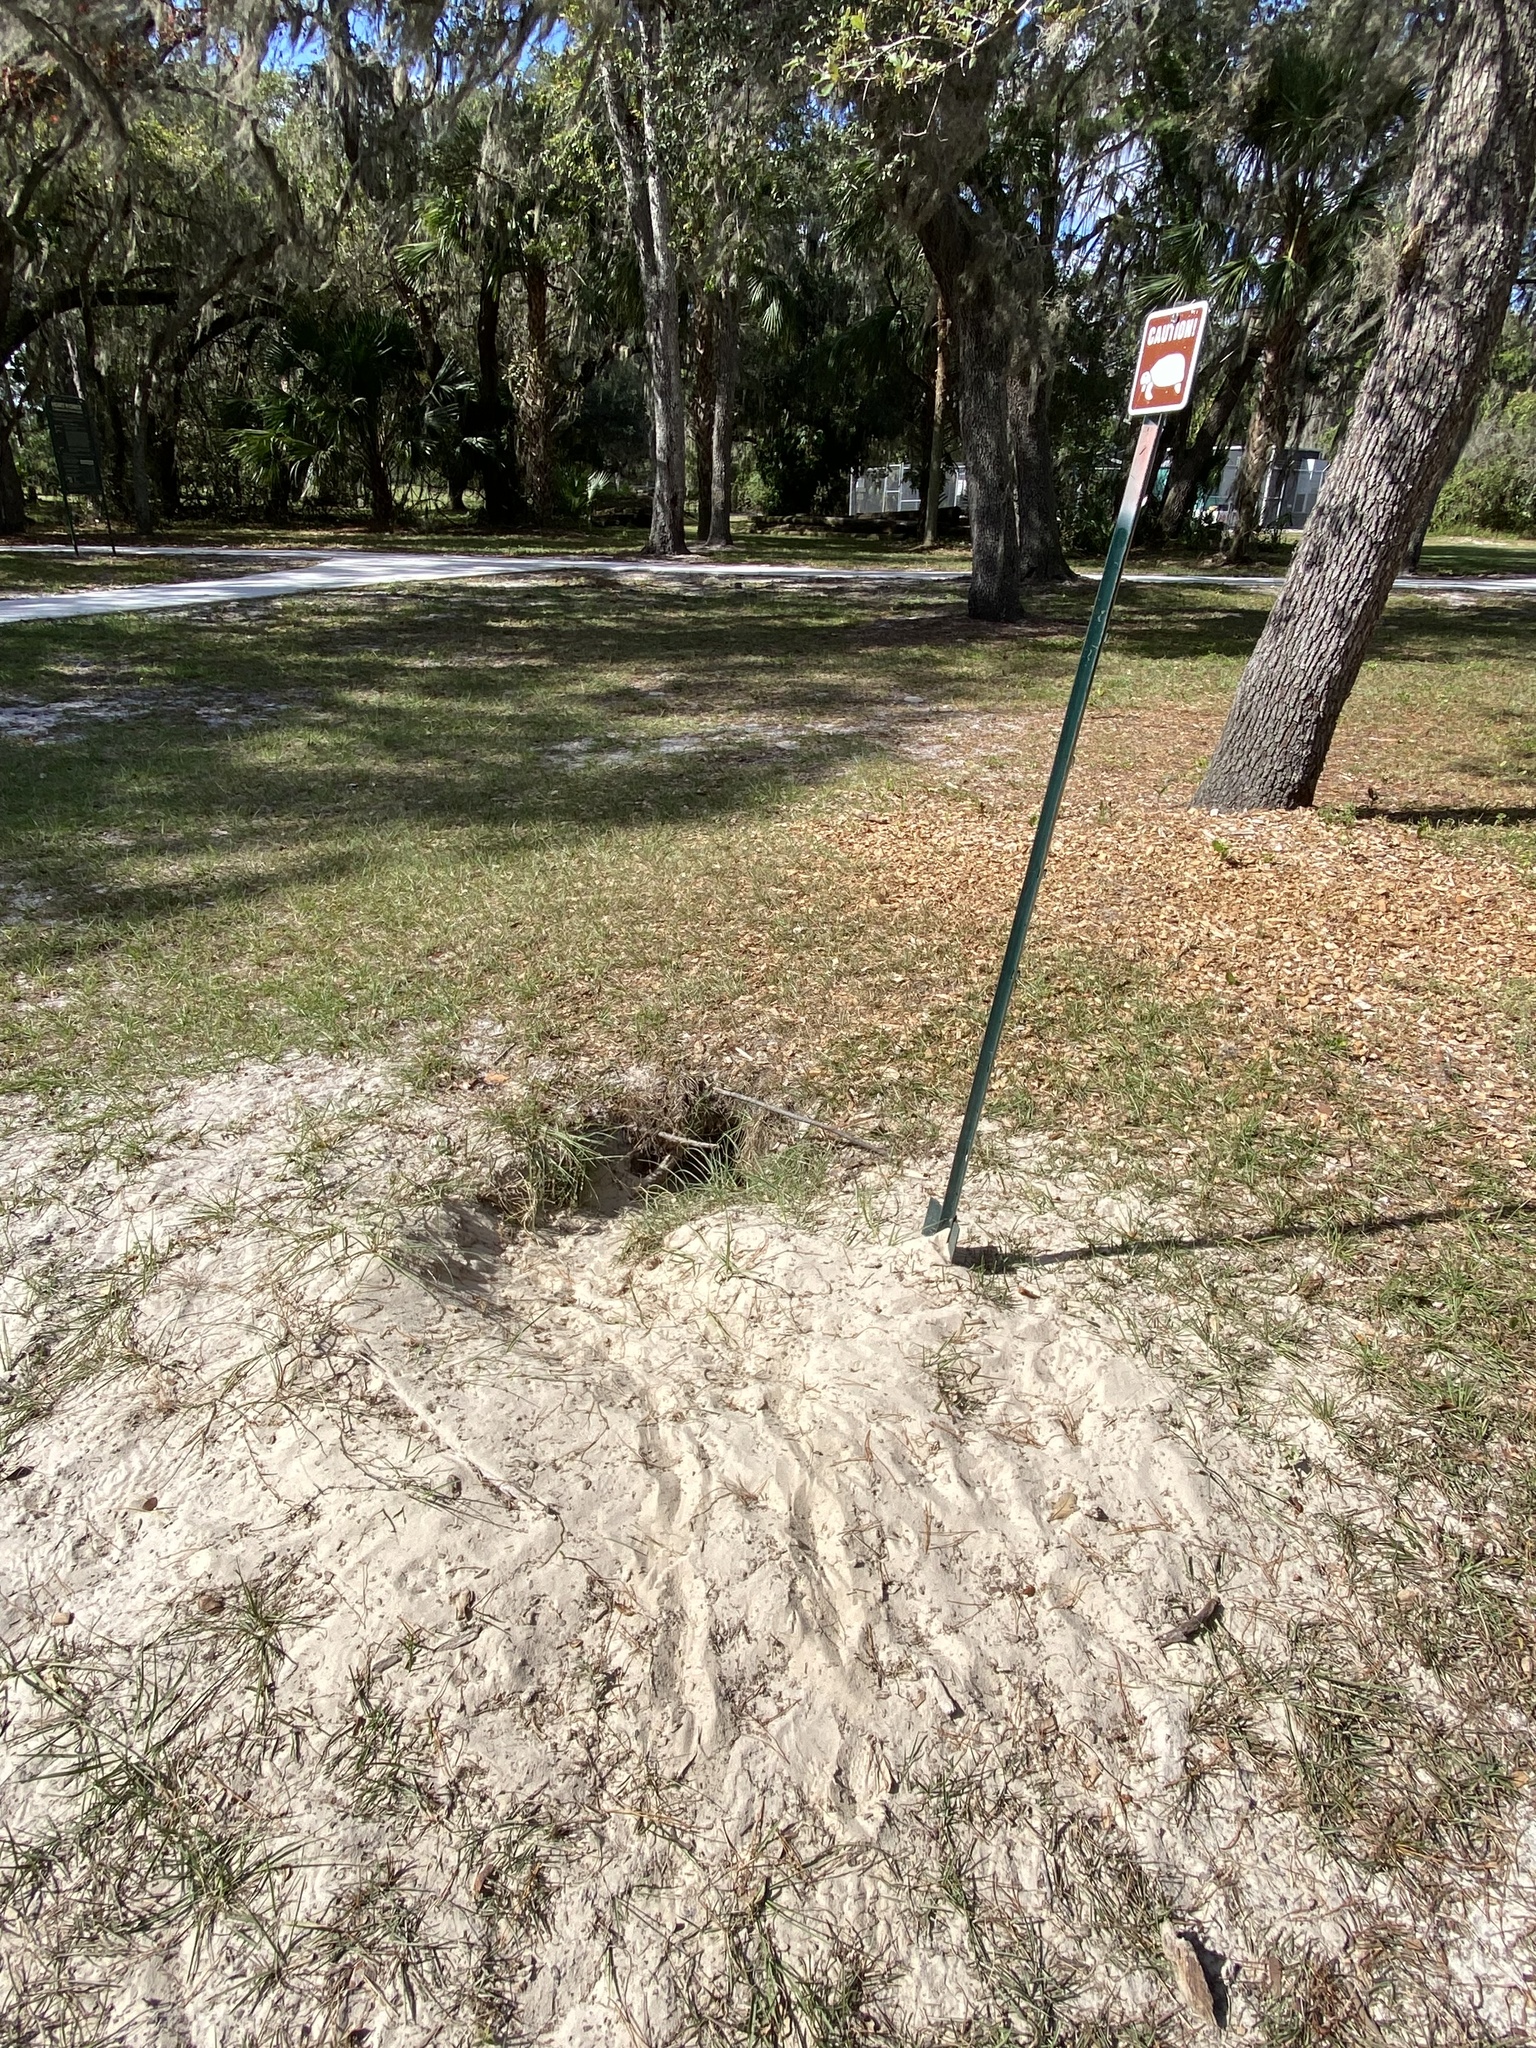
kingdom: Animalia
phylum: Chordata
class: Testudines
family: Testudinidae
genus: Gopherus
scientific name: Gopherus polyphemus
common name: Florida gopher tortoise
